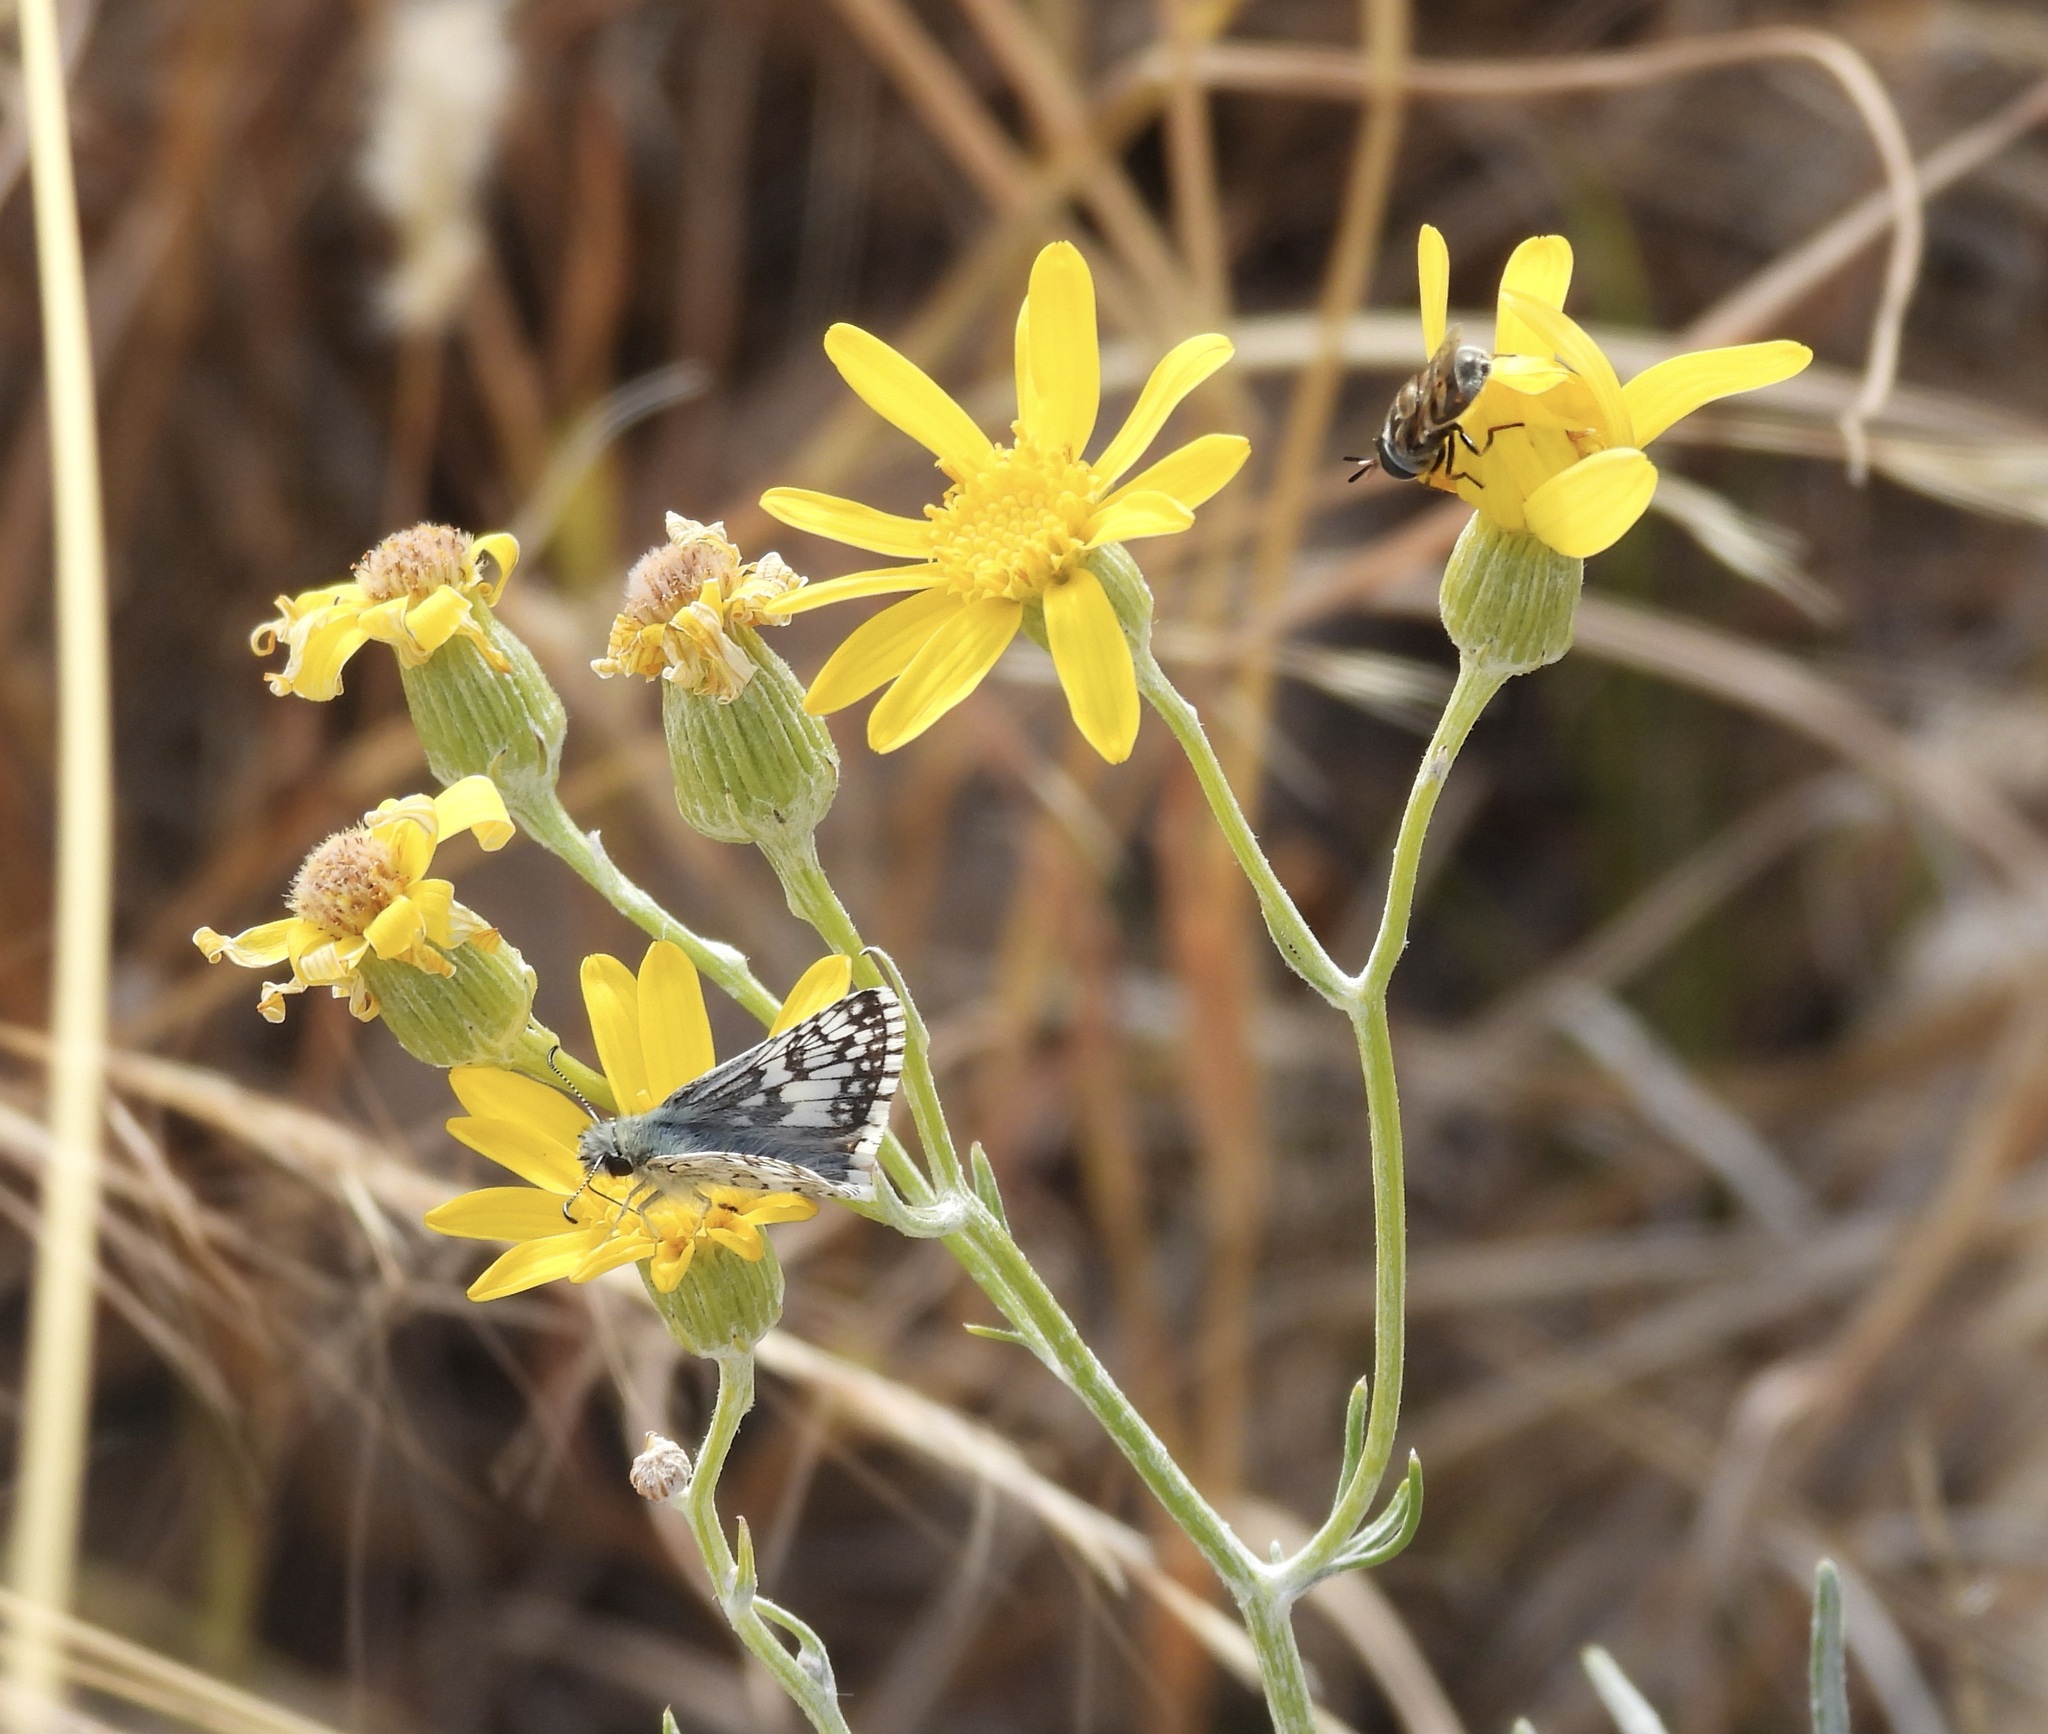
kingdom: Animalia
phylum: Arthropoda
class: Insecta
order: Lepidoptera
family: Hesperiidae
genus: Burnsius
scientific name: Burnsius
